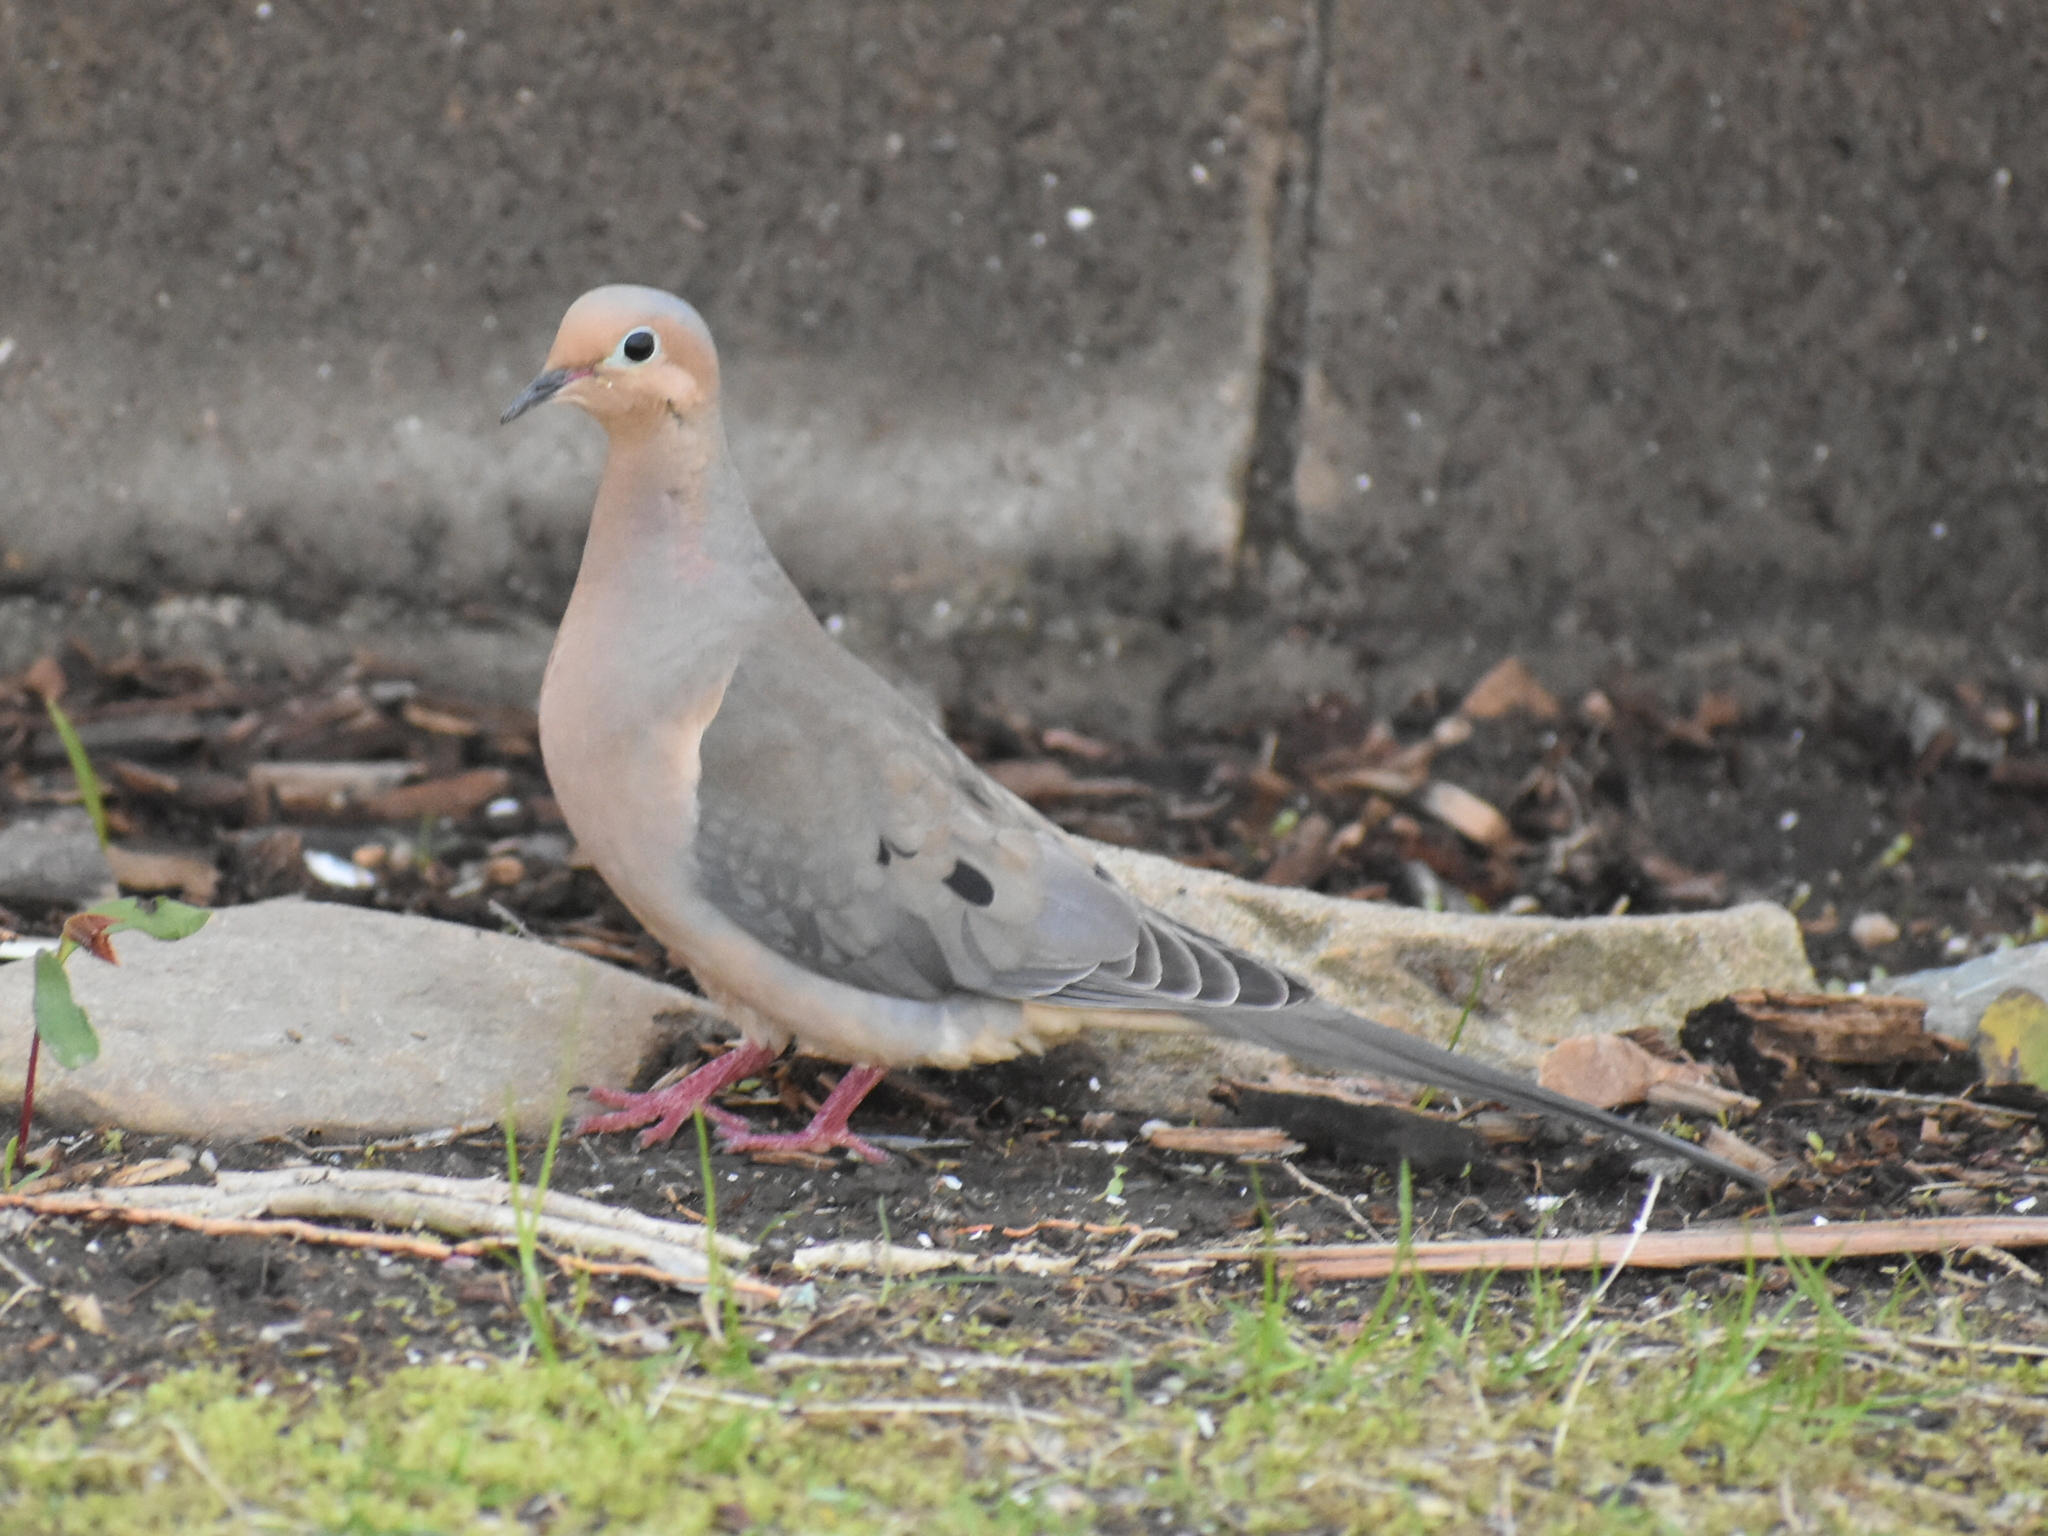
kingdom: Animalia
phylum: Chordata
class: Aves
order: Columbiformes
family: Columbidae
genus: Zenaida
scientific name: Zenaida macroura
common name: Mourning dove
